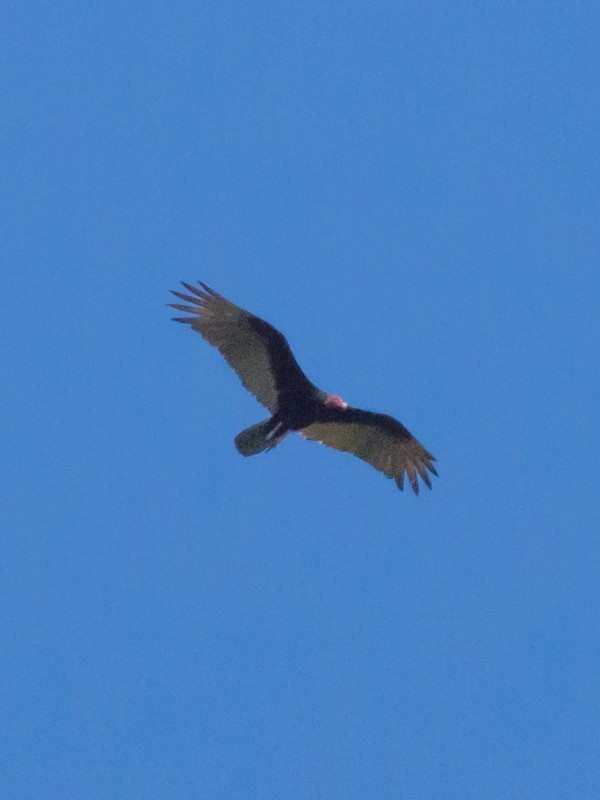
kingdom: Animalia
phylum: Chordata
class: Aves
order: Accipitriformes
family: Cathartidae
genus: Cathartes
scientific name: Cathartes aura
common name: Turkey vulture
